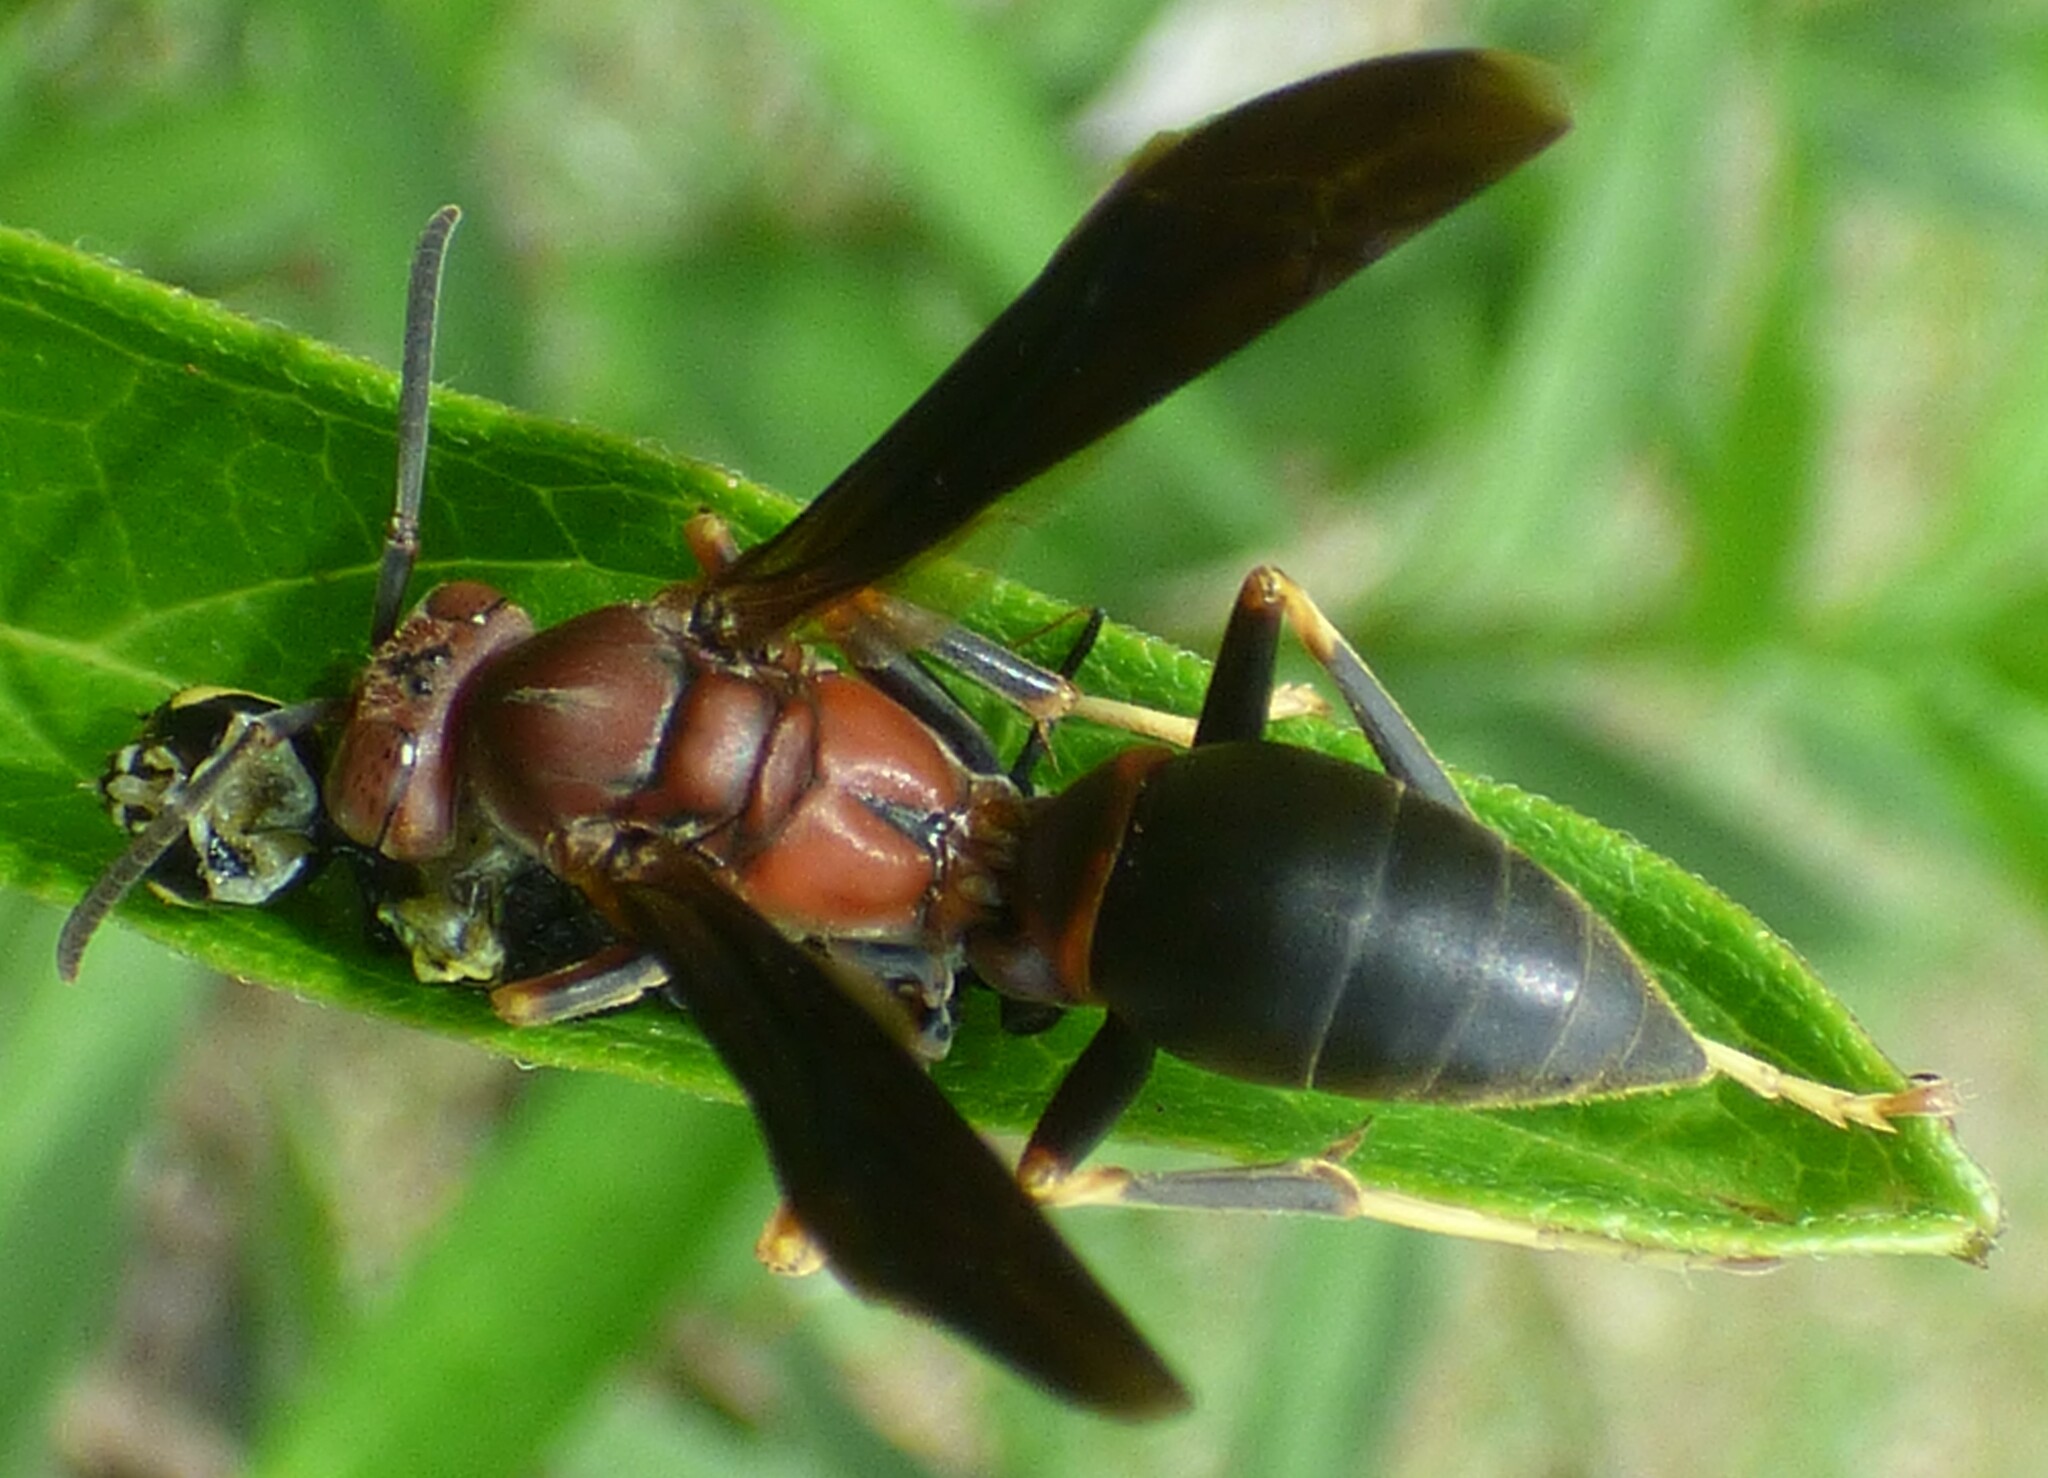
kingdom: Animalia
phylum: Arthropoda
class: Insecta
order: Hymenoptera
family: Eumenidae
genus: Polistes
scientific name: Polistes metricus
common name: Metric paper wasp
